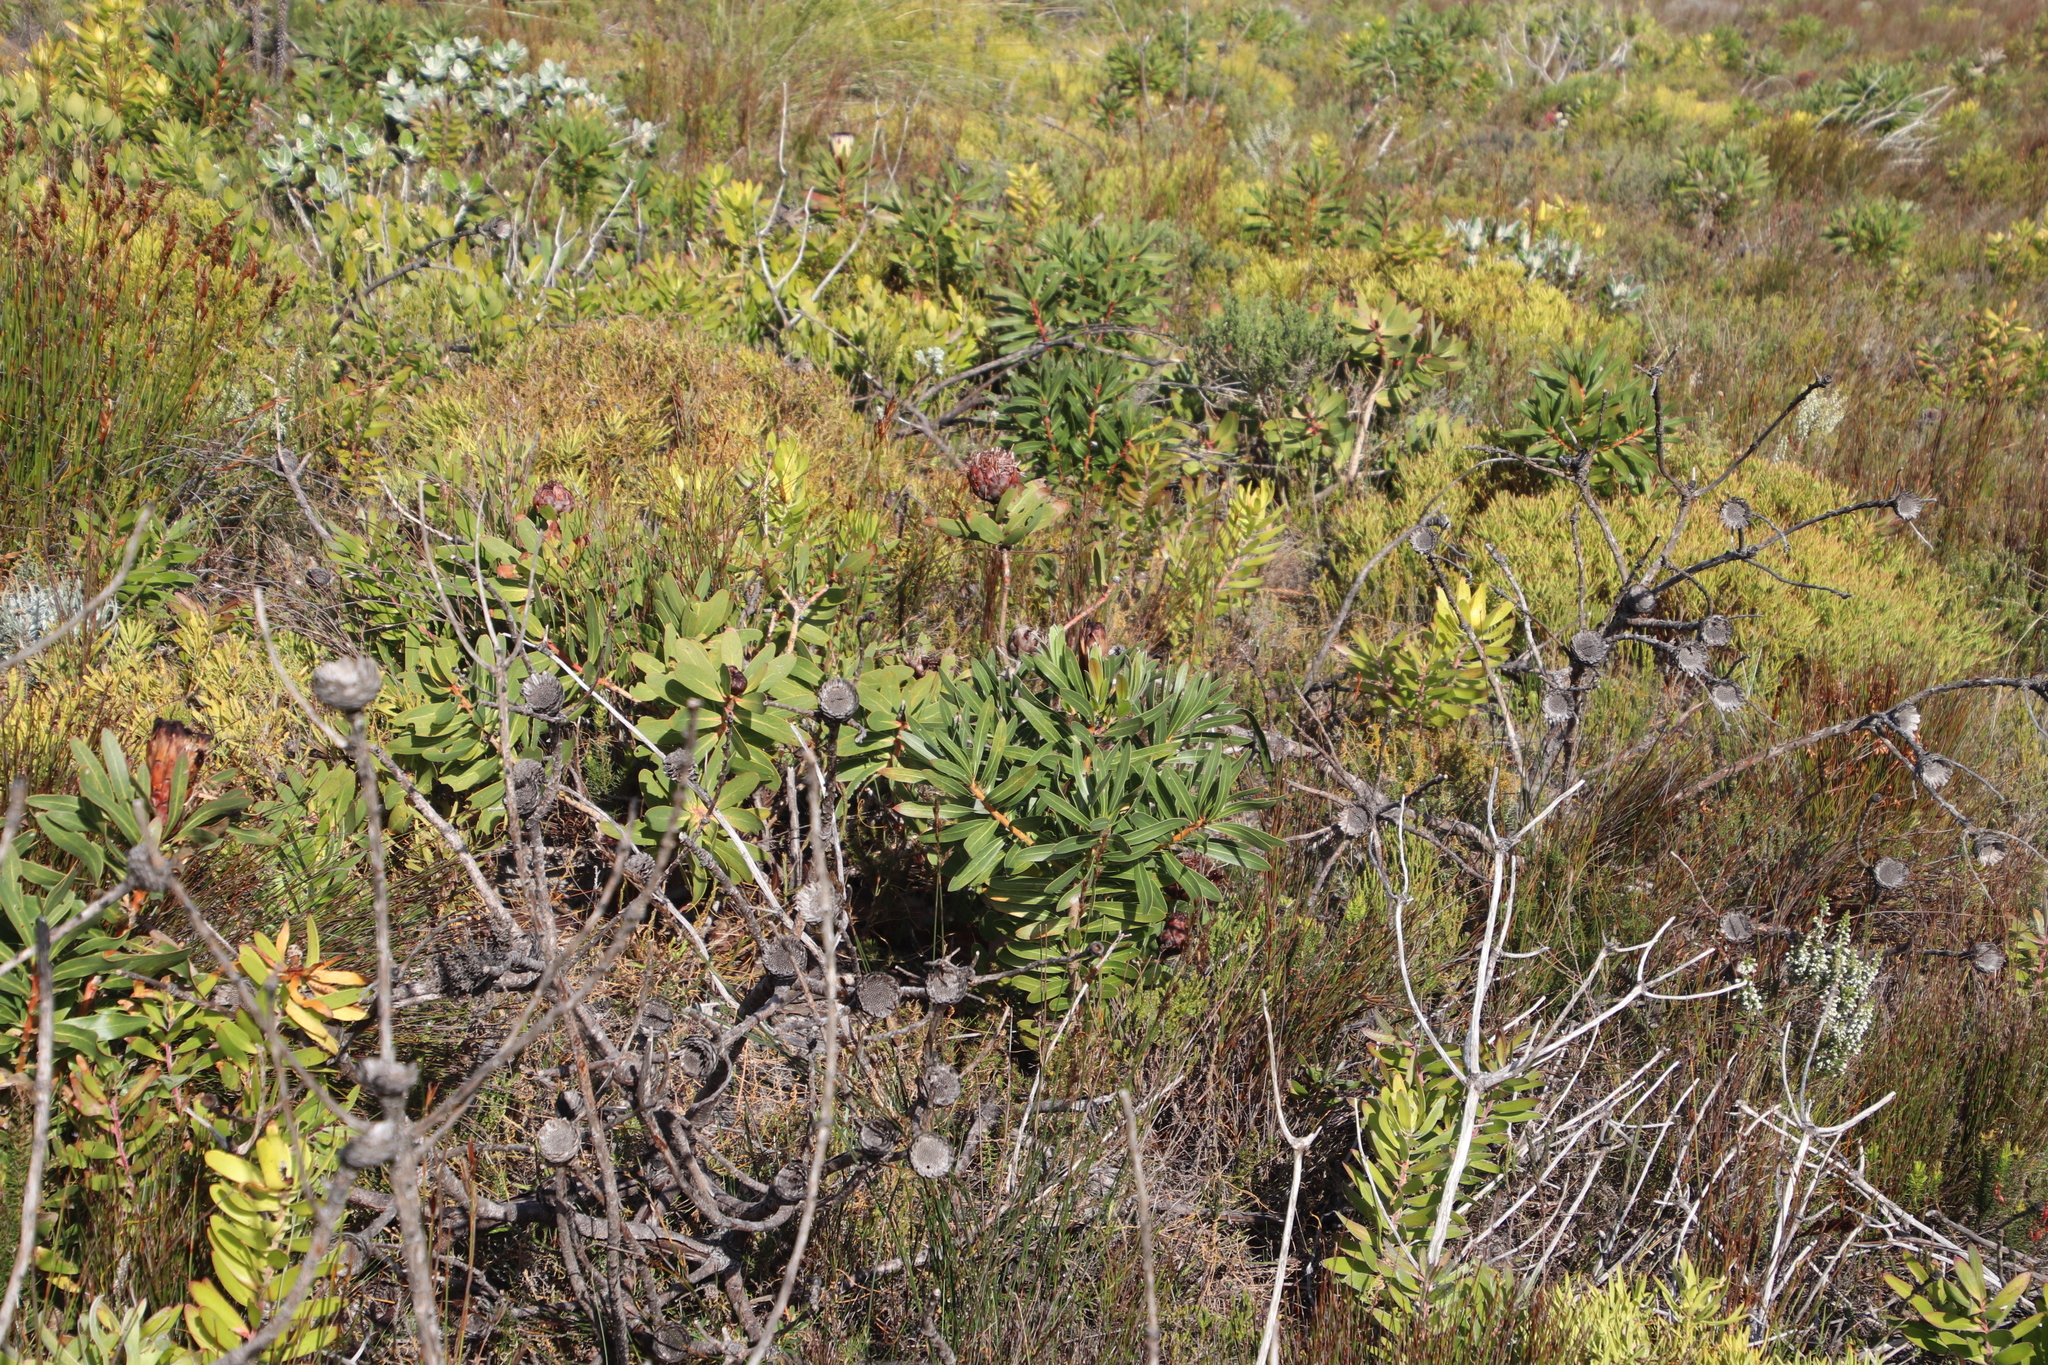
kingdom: Plantae
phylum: Tracheophyta
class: Magnoliopsida
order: Proteales
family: Proteaceae
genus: Protea
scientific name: Protea lepidocarpodendron
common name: Black-bearded protea
